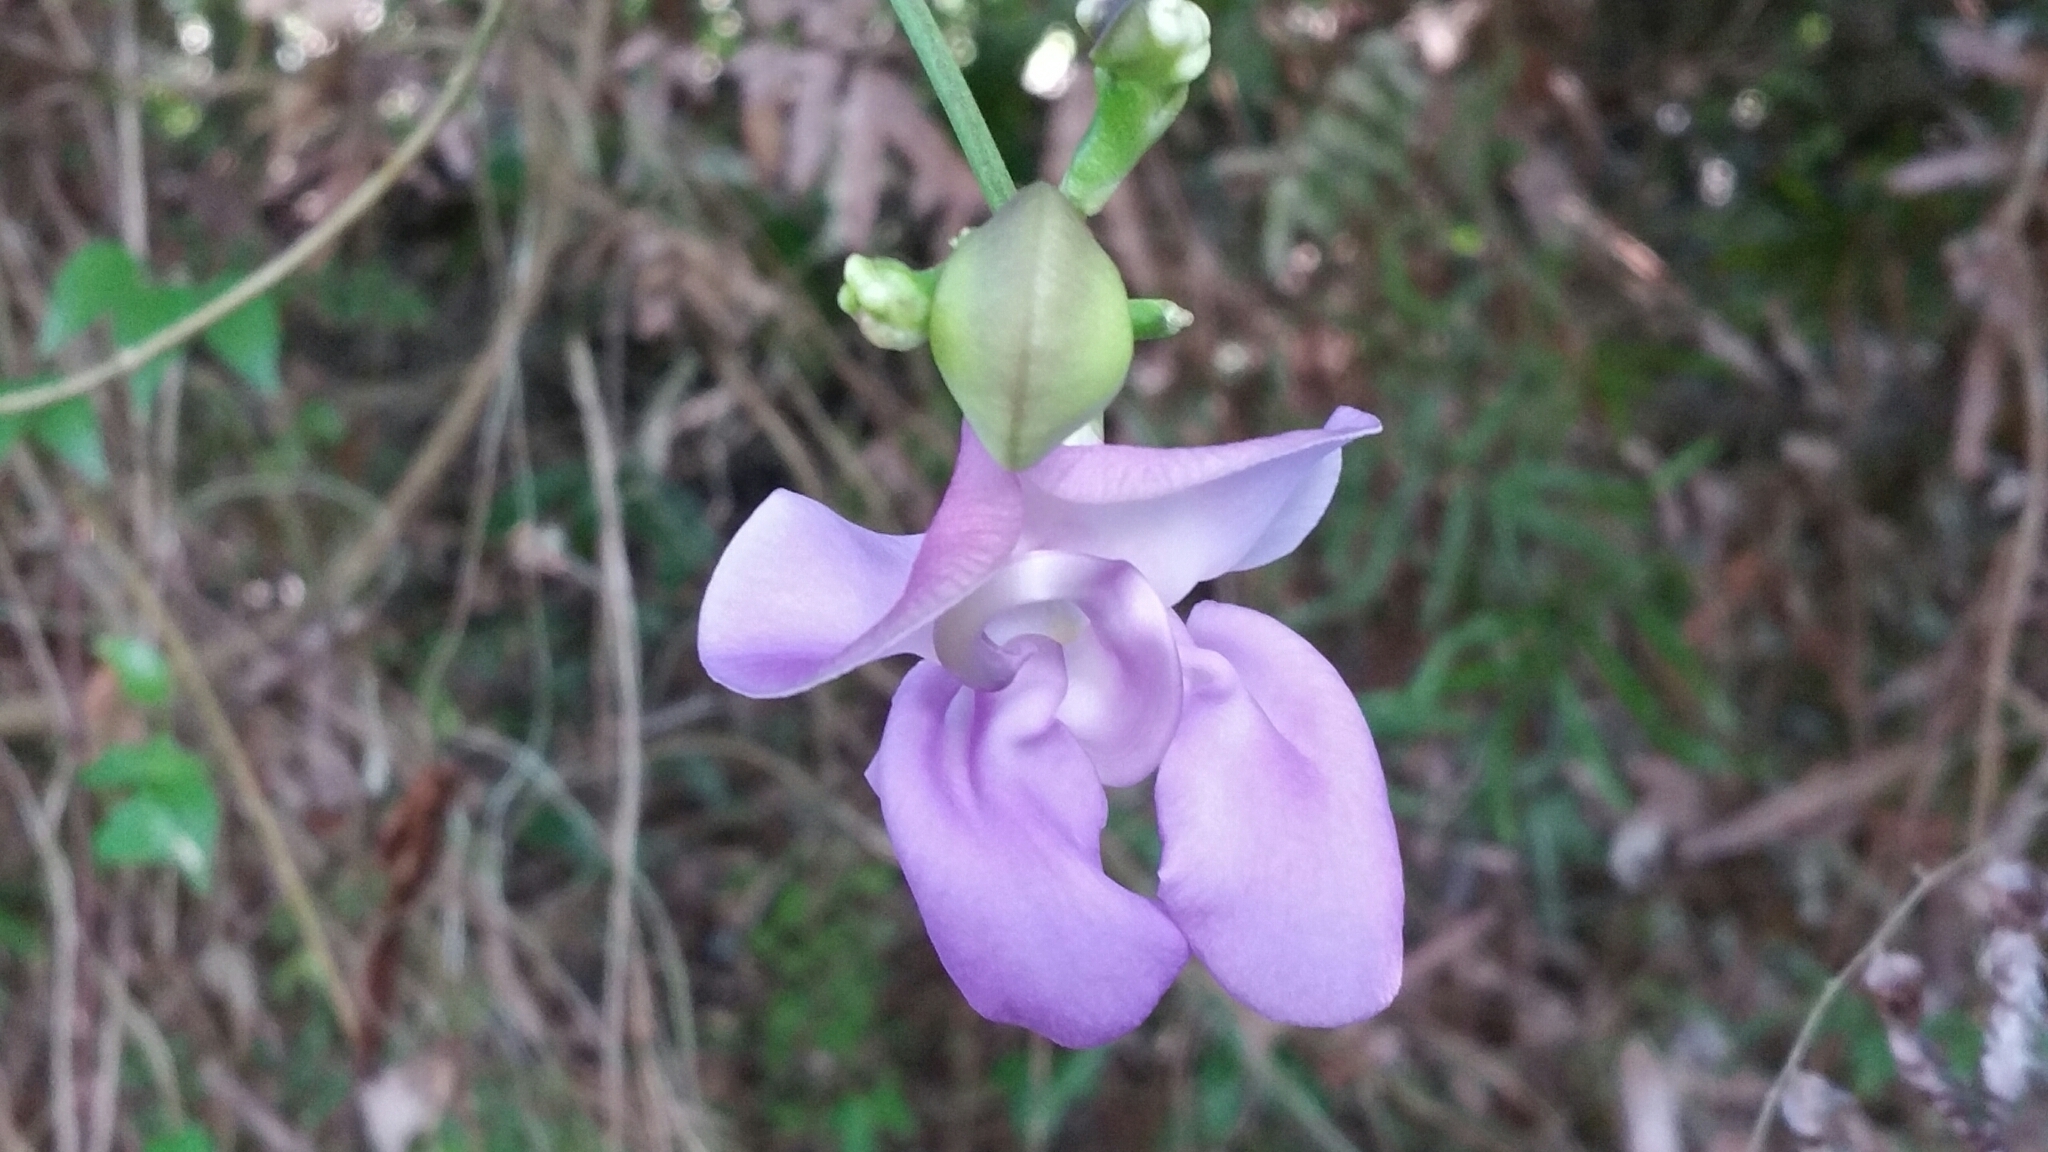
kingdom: Plantae
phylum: Tracheophyta
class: Magnoliopsida
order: Fabales
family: Fabaceae
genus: Vigna
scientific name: Vigna vexillata
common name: Zombi pea
